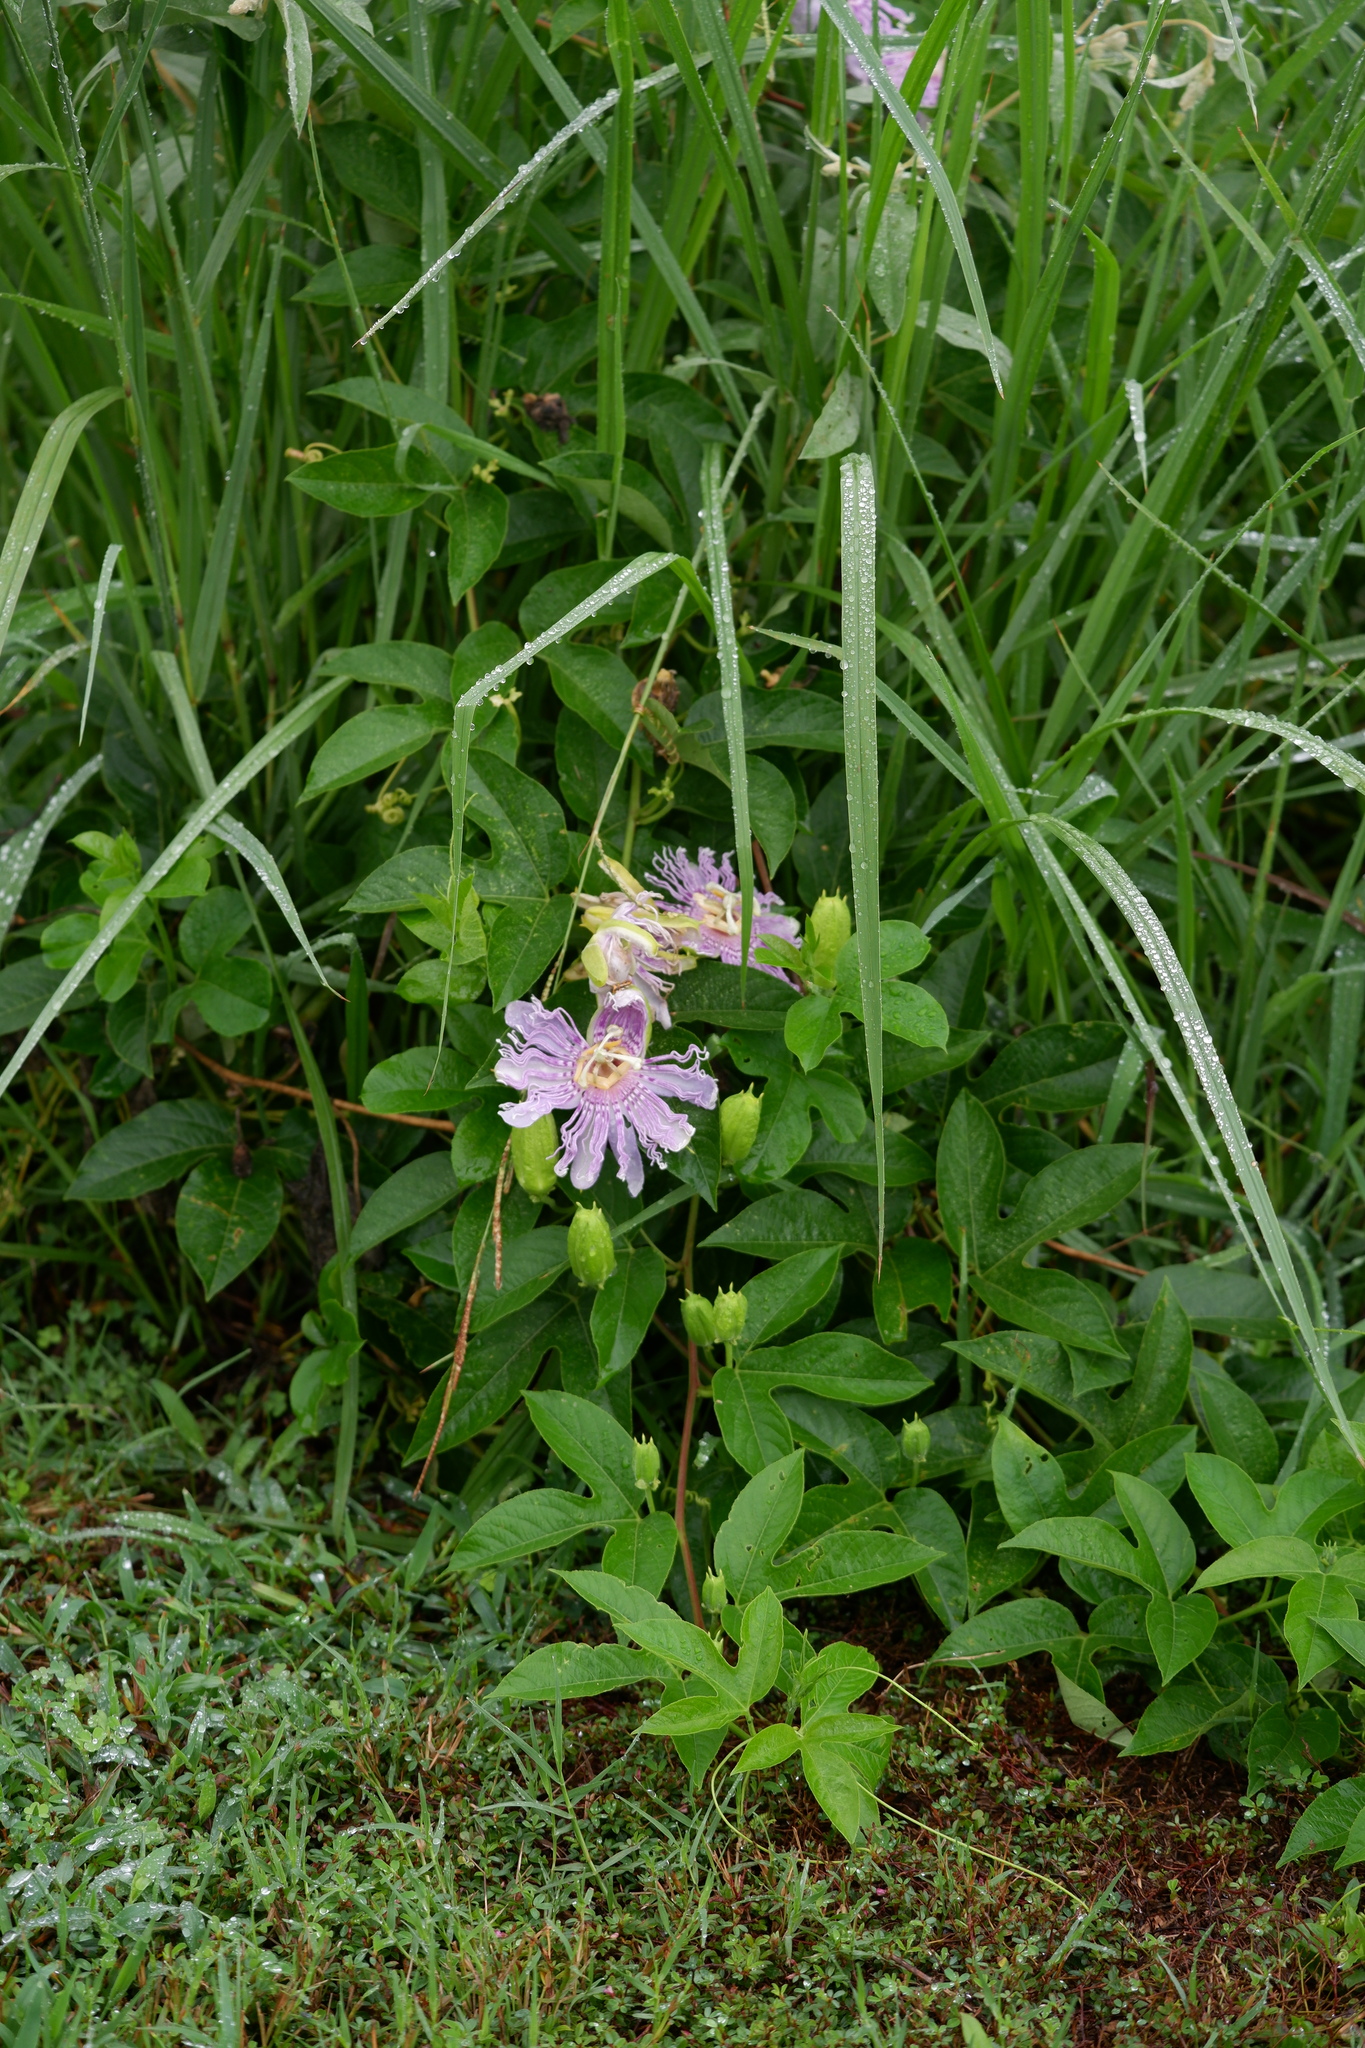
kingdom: Plantae
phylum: Tracheophyta
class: Magnoliopsida
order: Malpighiales
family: Passifloraceae
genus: Passiflora
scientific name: Passiflora incarnata
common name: Apricot-vine
